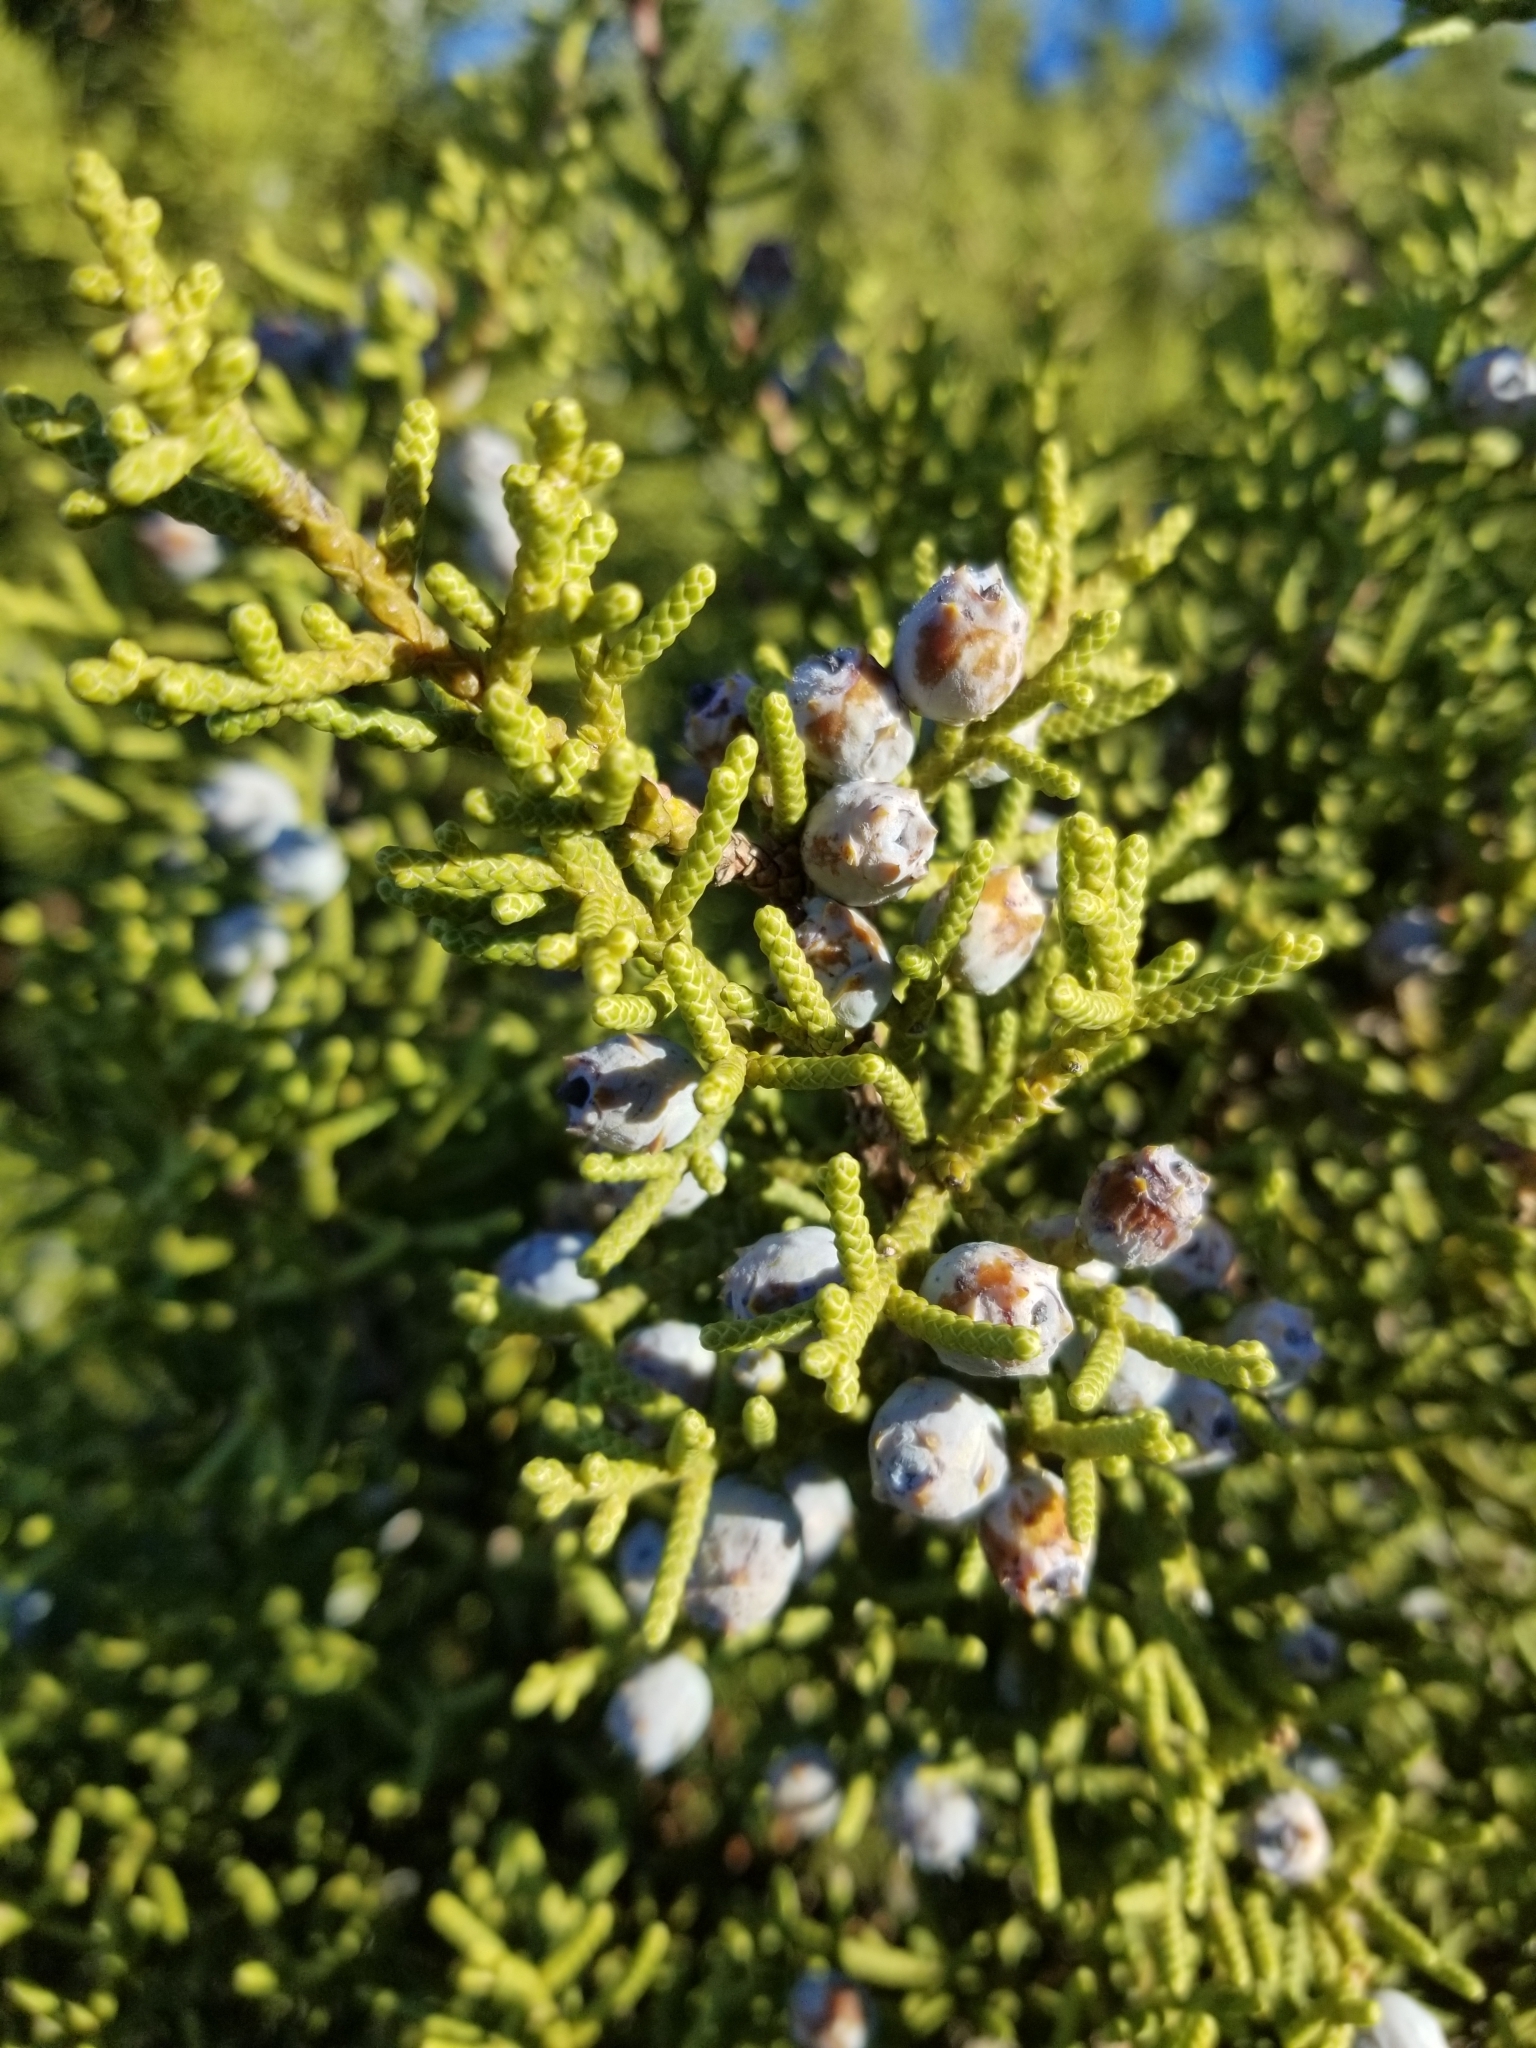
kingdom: Plantae
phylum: Tracheophyta
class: Pinopsida
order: Pinales
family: Cupressaceae
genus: Juniperus
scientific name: Juniperus californica
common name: California juniper
